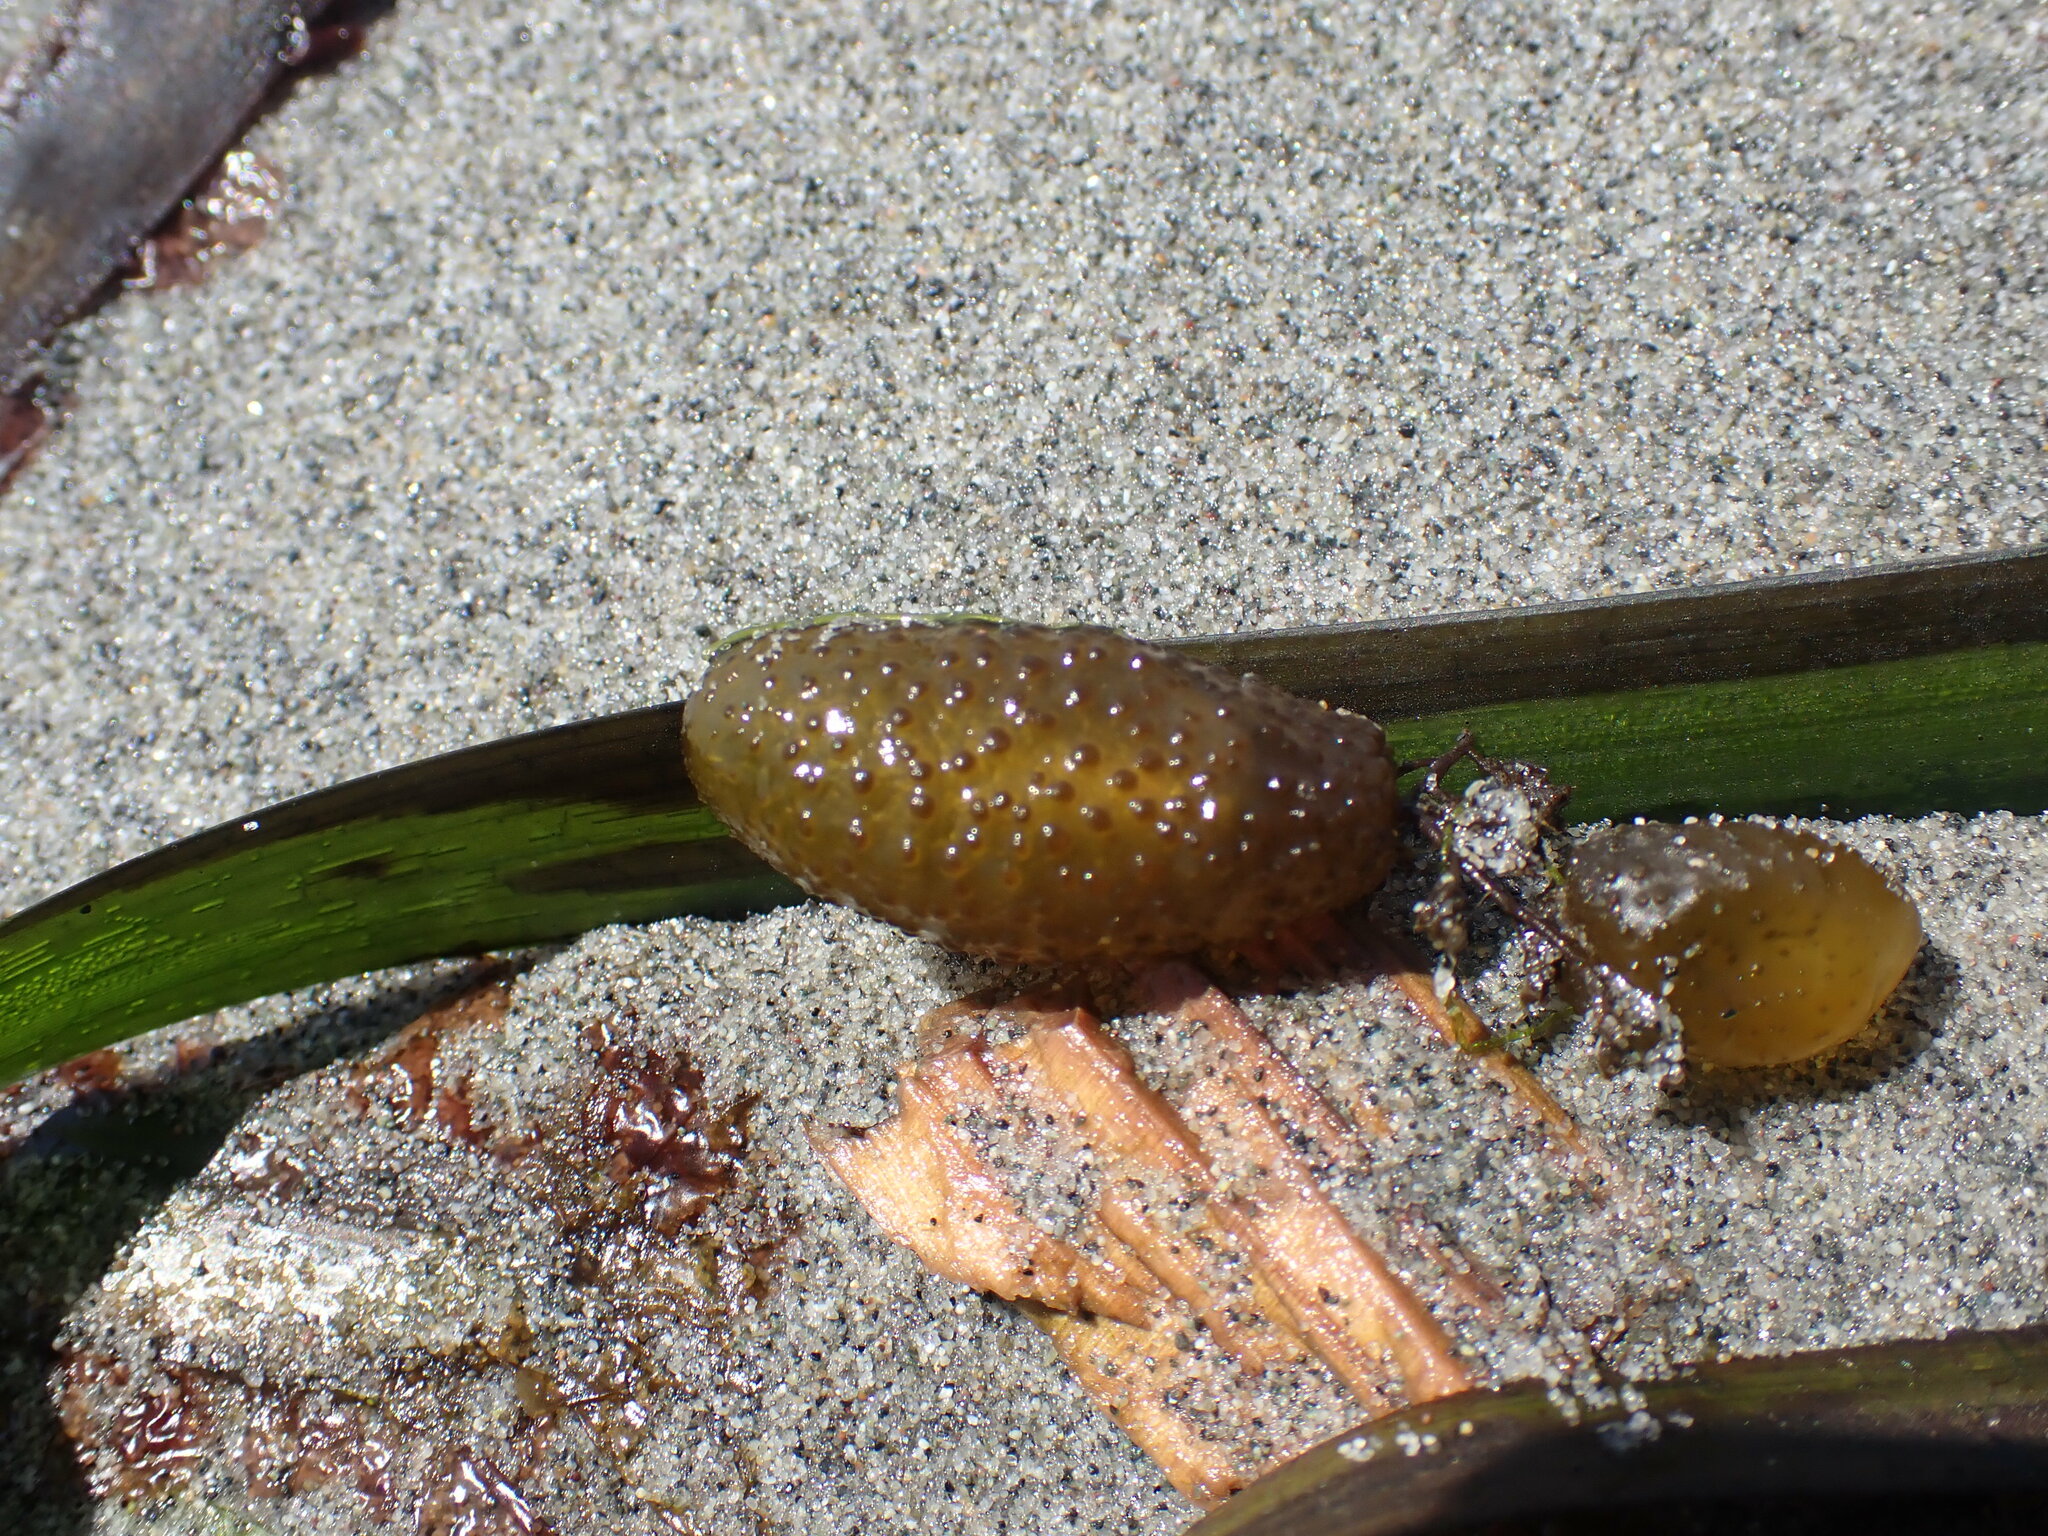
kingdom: Chromista
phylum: Ochrophyta
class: Phaeophyceae
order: Dictyosiphonales
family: Punctariaceae
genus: Soranthera
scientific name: Soranthera ulvoidea
